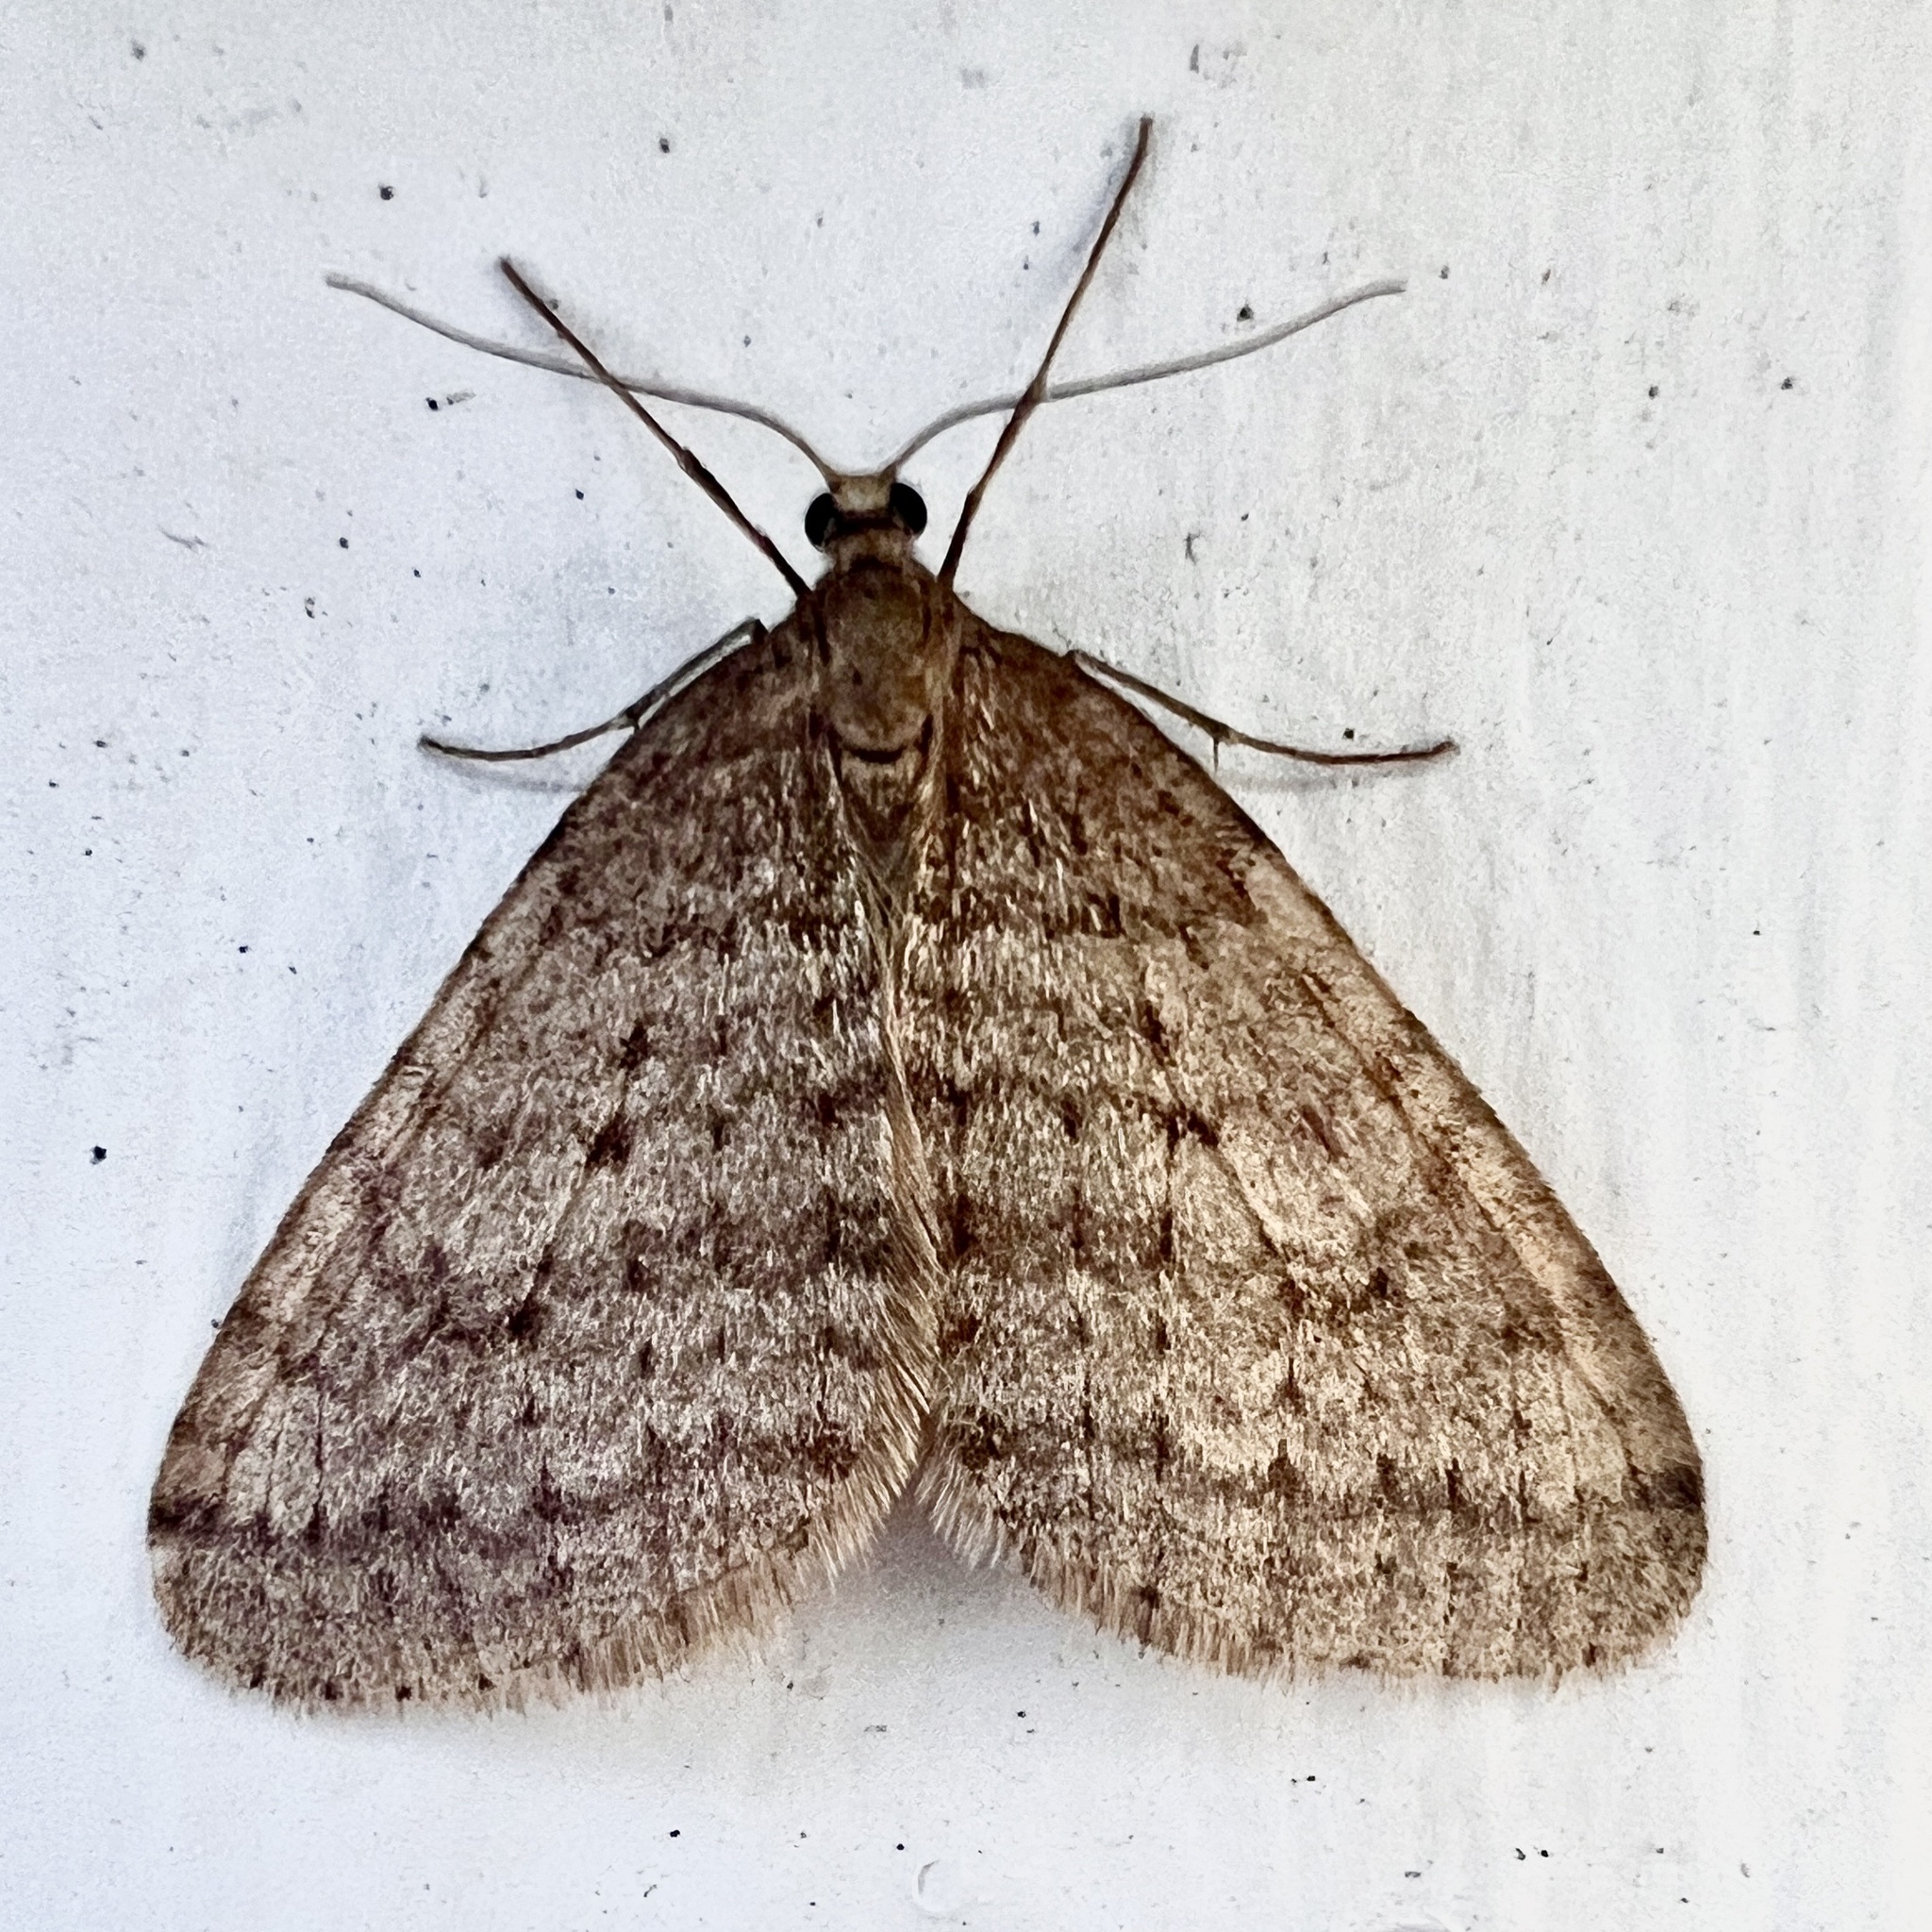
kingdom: Animalia
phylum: Arthropoda
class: Insecta
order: Lepidoptera
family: Geometridae
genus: Operophtera
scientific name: Operophtera bruceata
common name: Bruce spanworm
